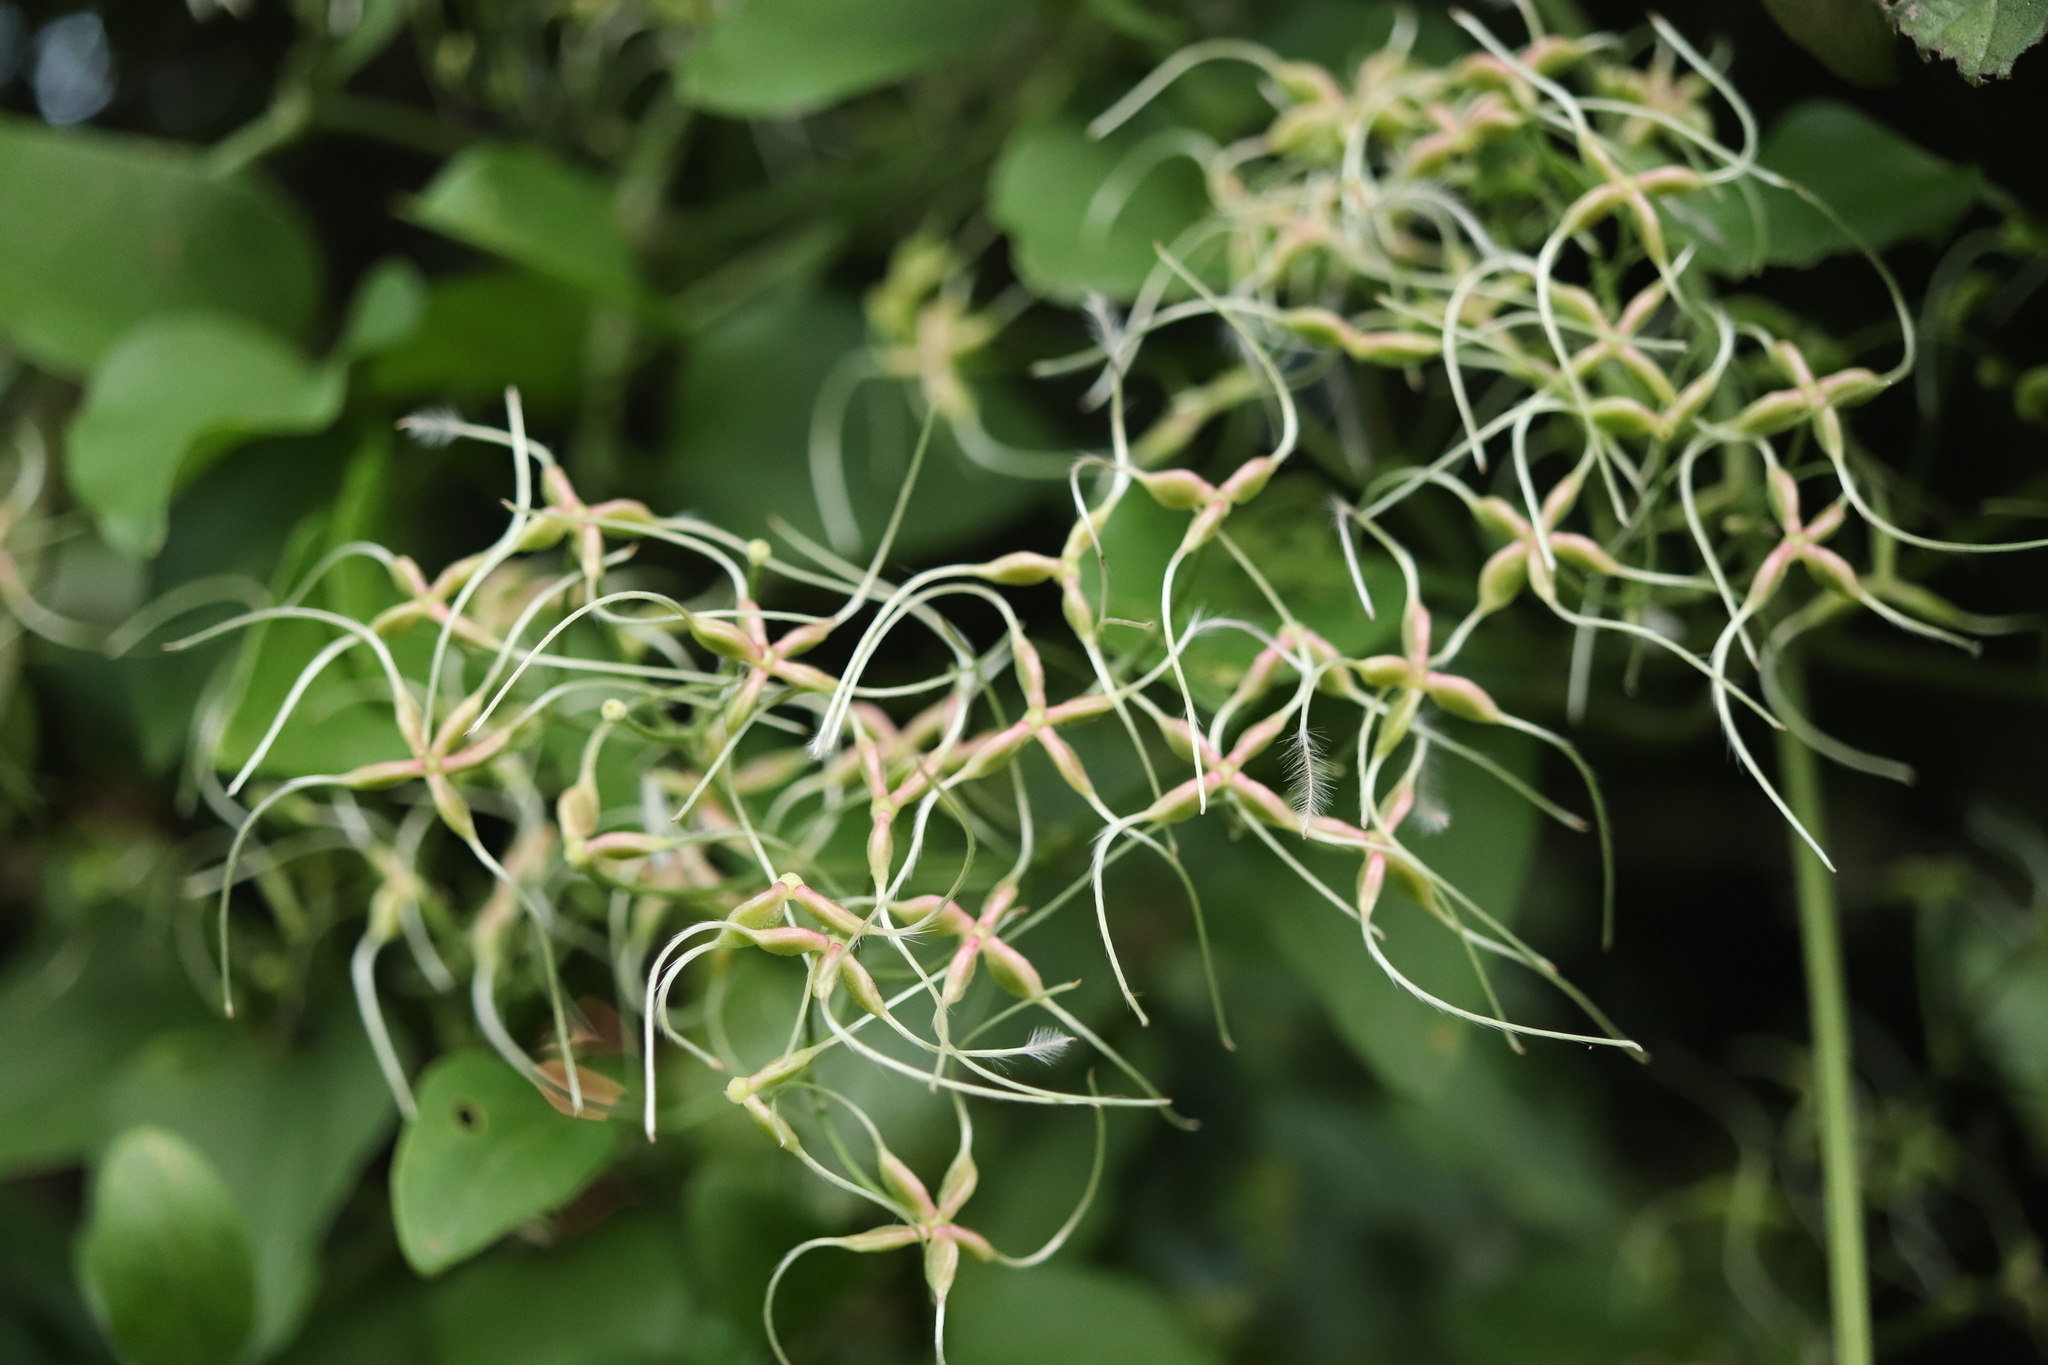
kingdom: Plantae
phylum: Tracheophyta
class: Magnoliopsida
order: Ranunculales
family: Ranunculaceae
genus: Clematis
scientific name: Clematis terniflora
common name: Sweet autumn clematis
